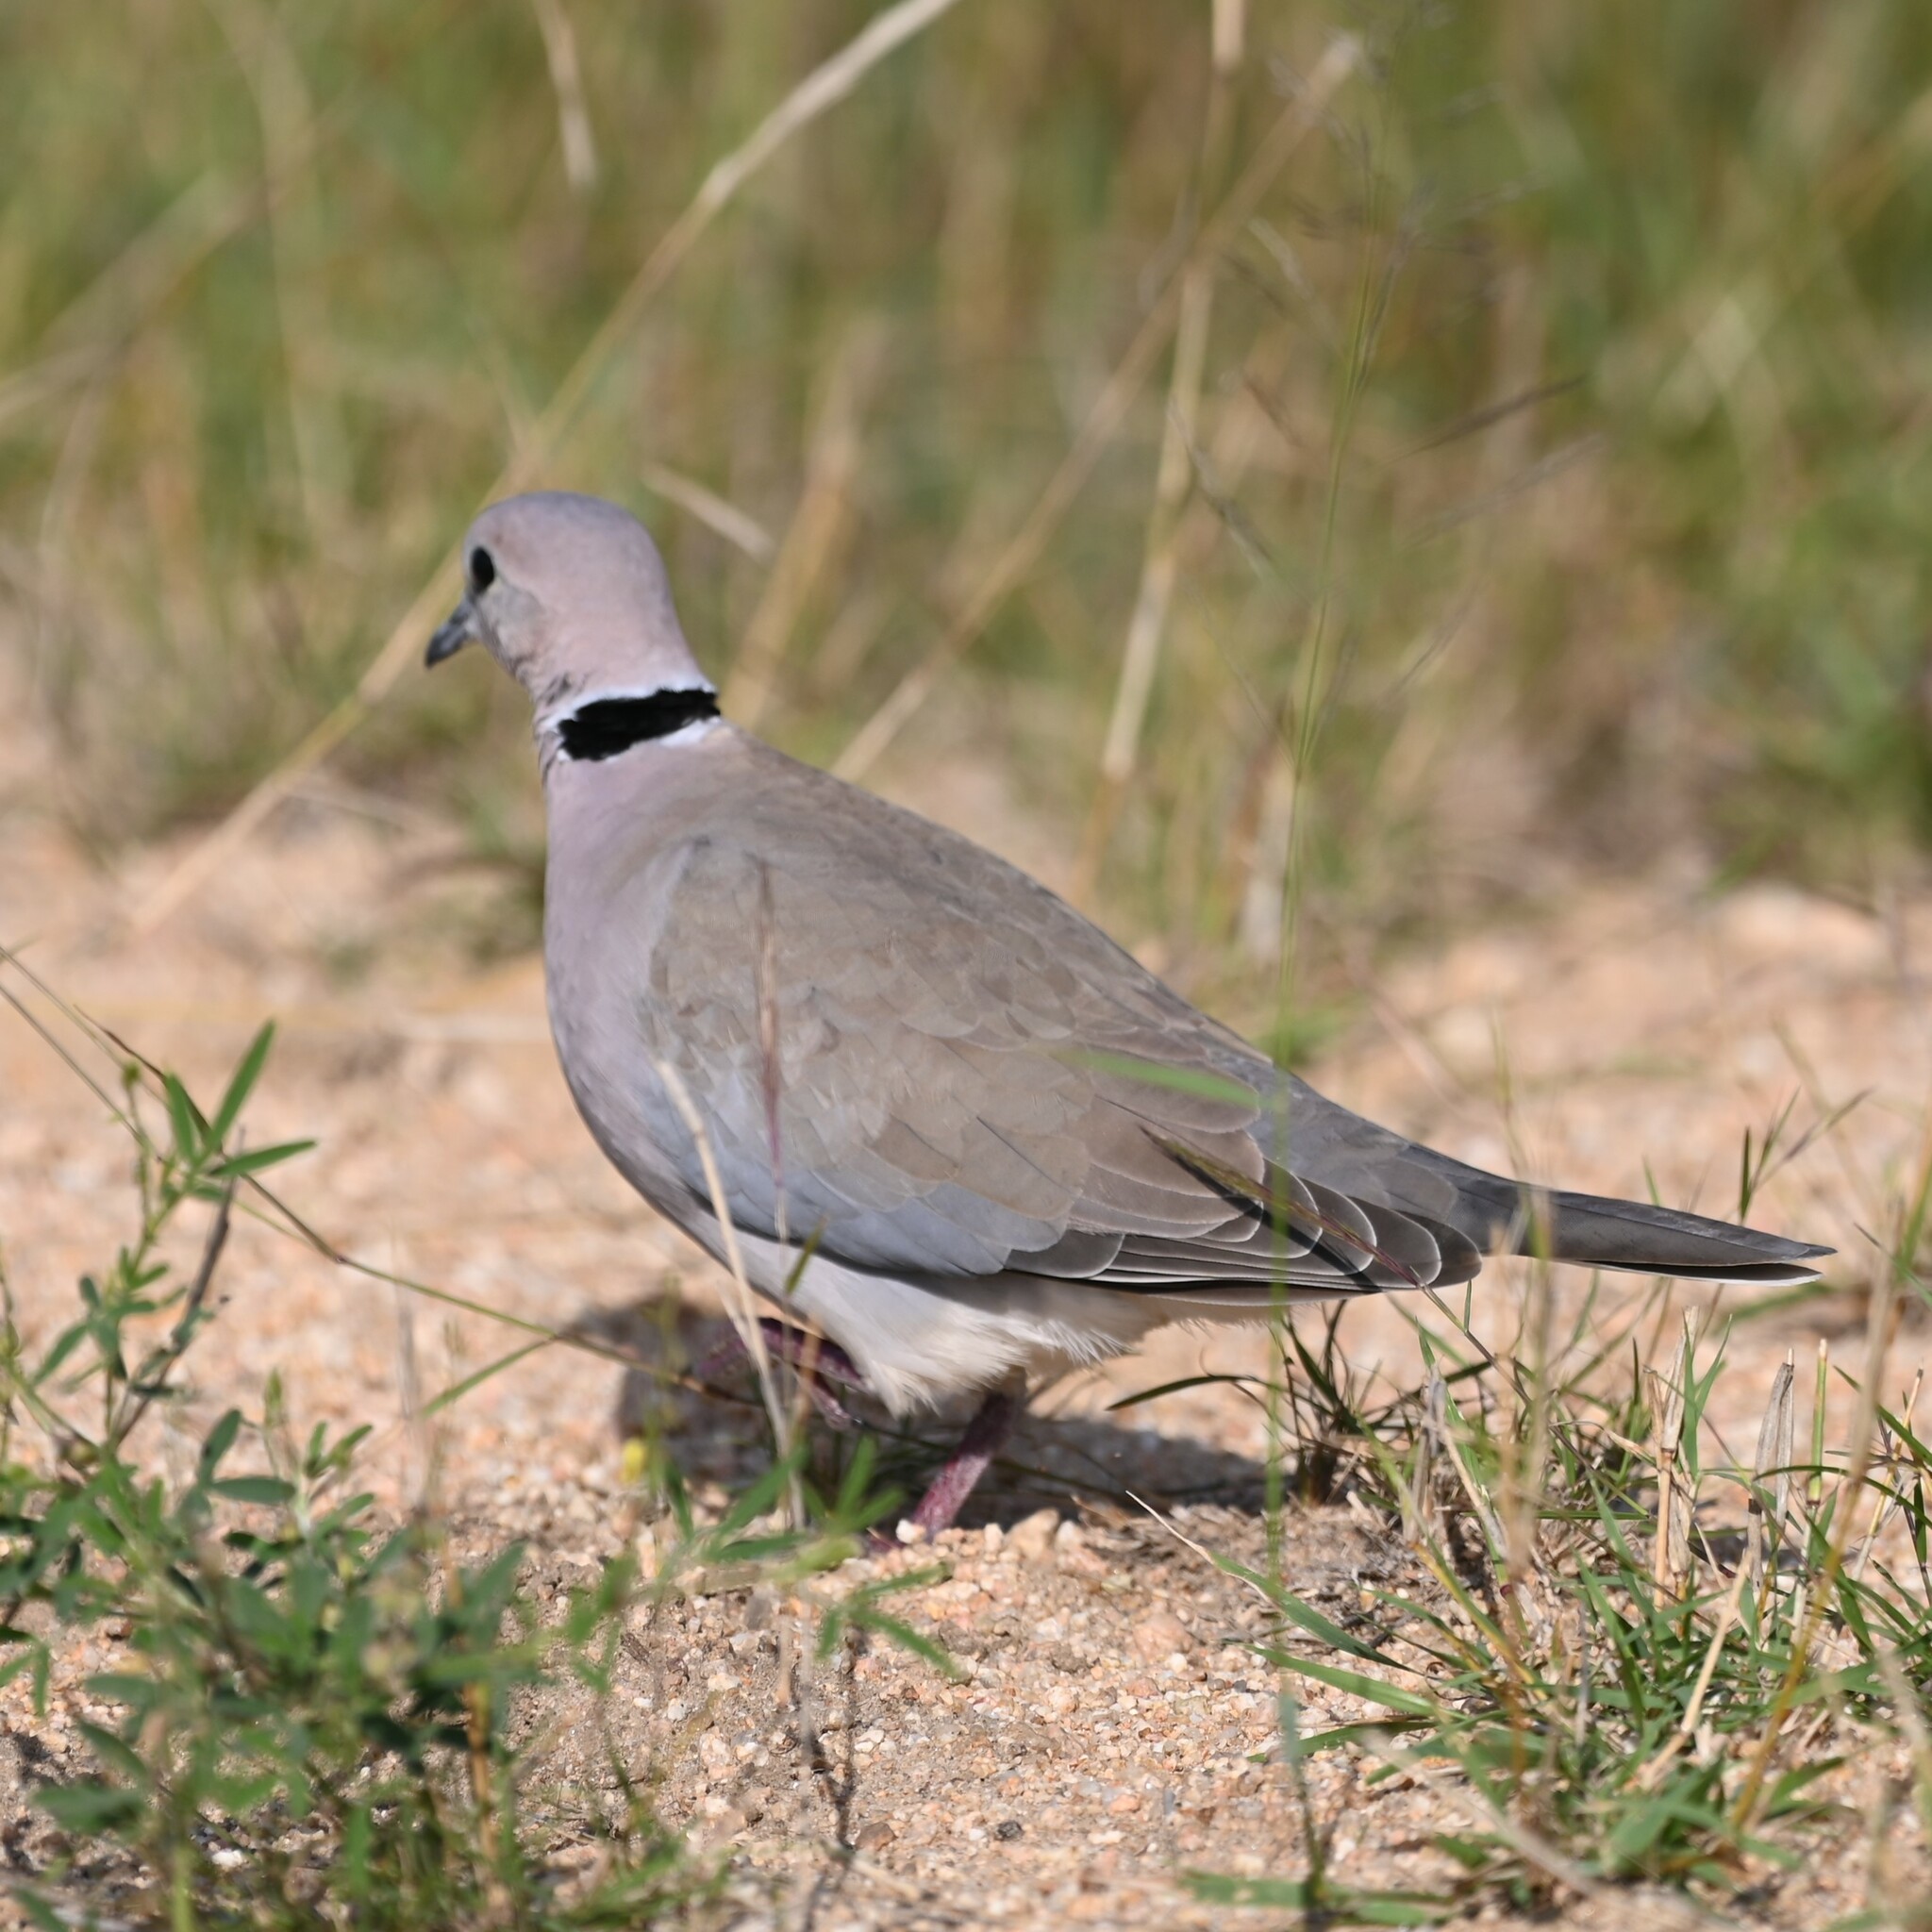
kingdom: Animalia
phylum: Chordata
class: Aves
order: Columbiformes
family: Columbidae
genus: Streptopelia
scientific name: Streptopelia capicola
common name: Ring-necked dove
